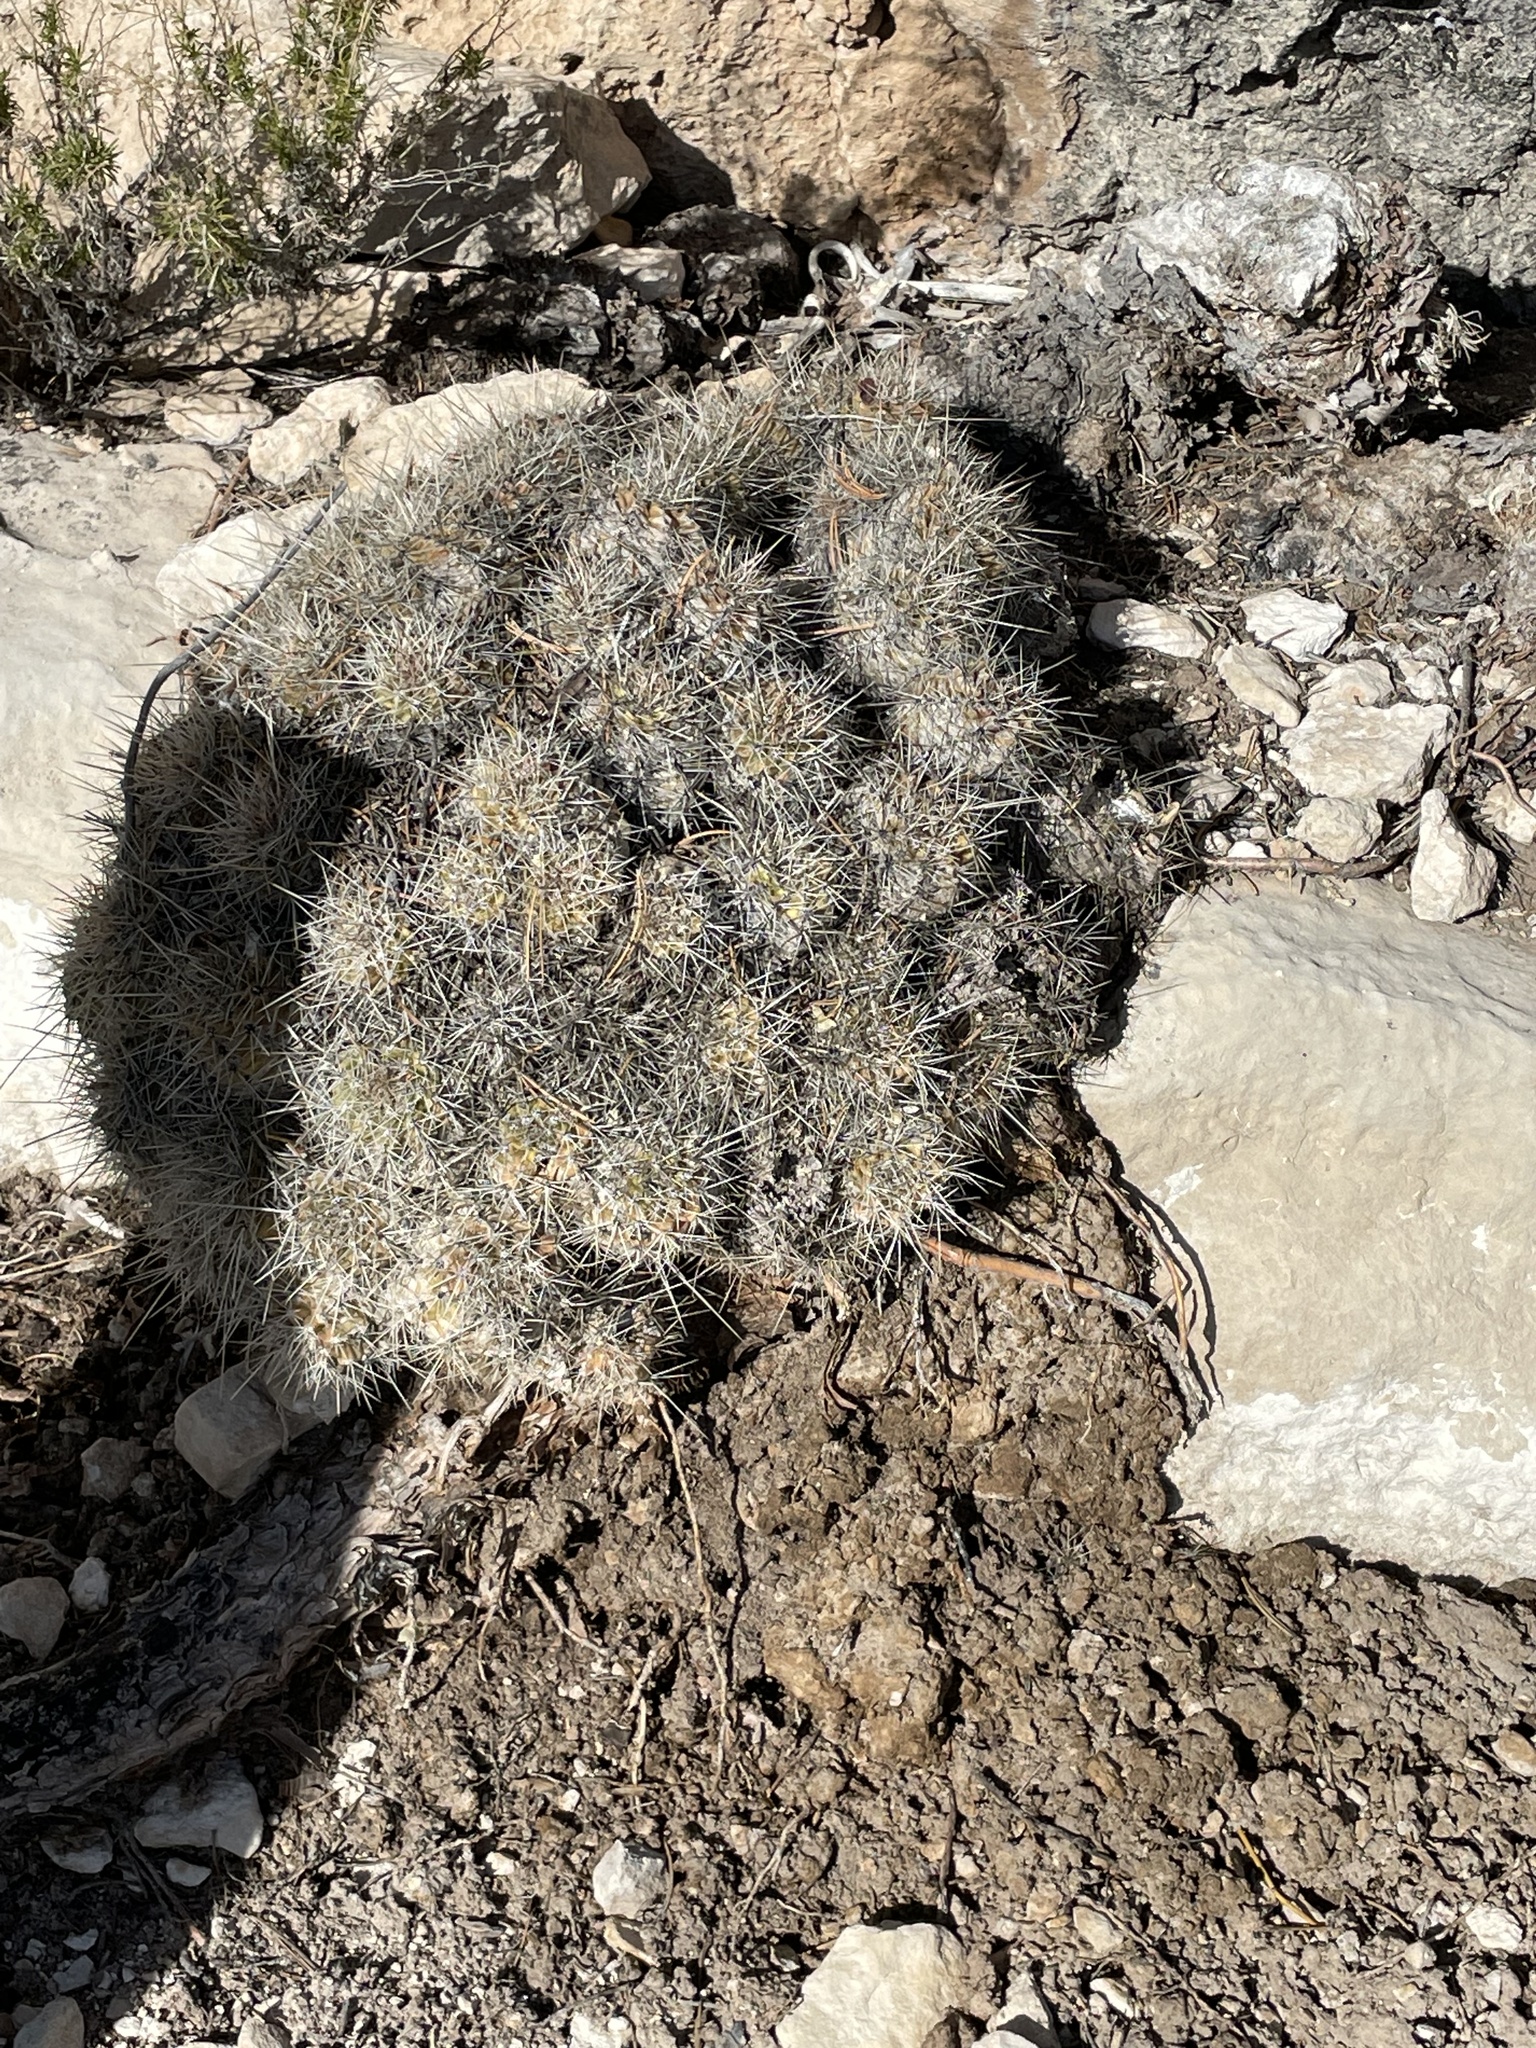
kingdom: Plantae
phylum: Tracheophyta
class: Magnoliopsida
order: Caryophyllales
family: Cactaceae
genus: Echinocereus
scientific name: Echinocereus bakeri
